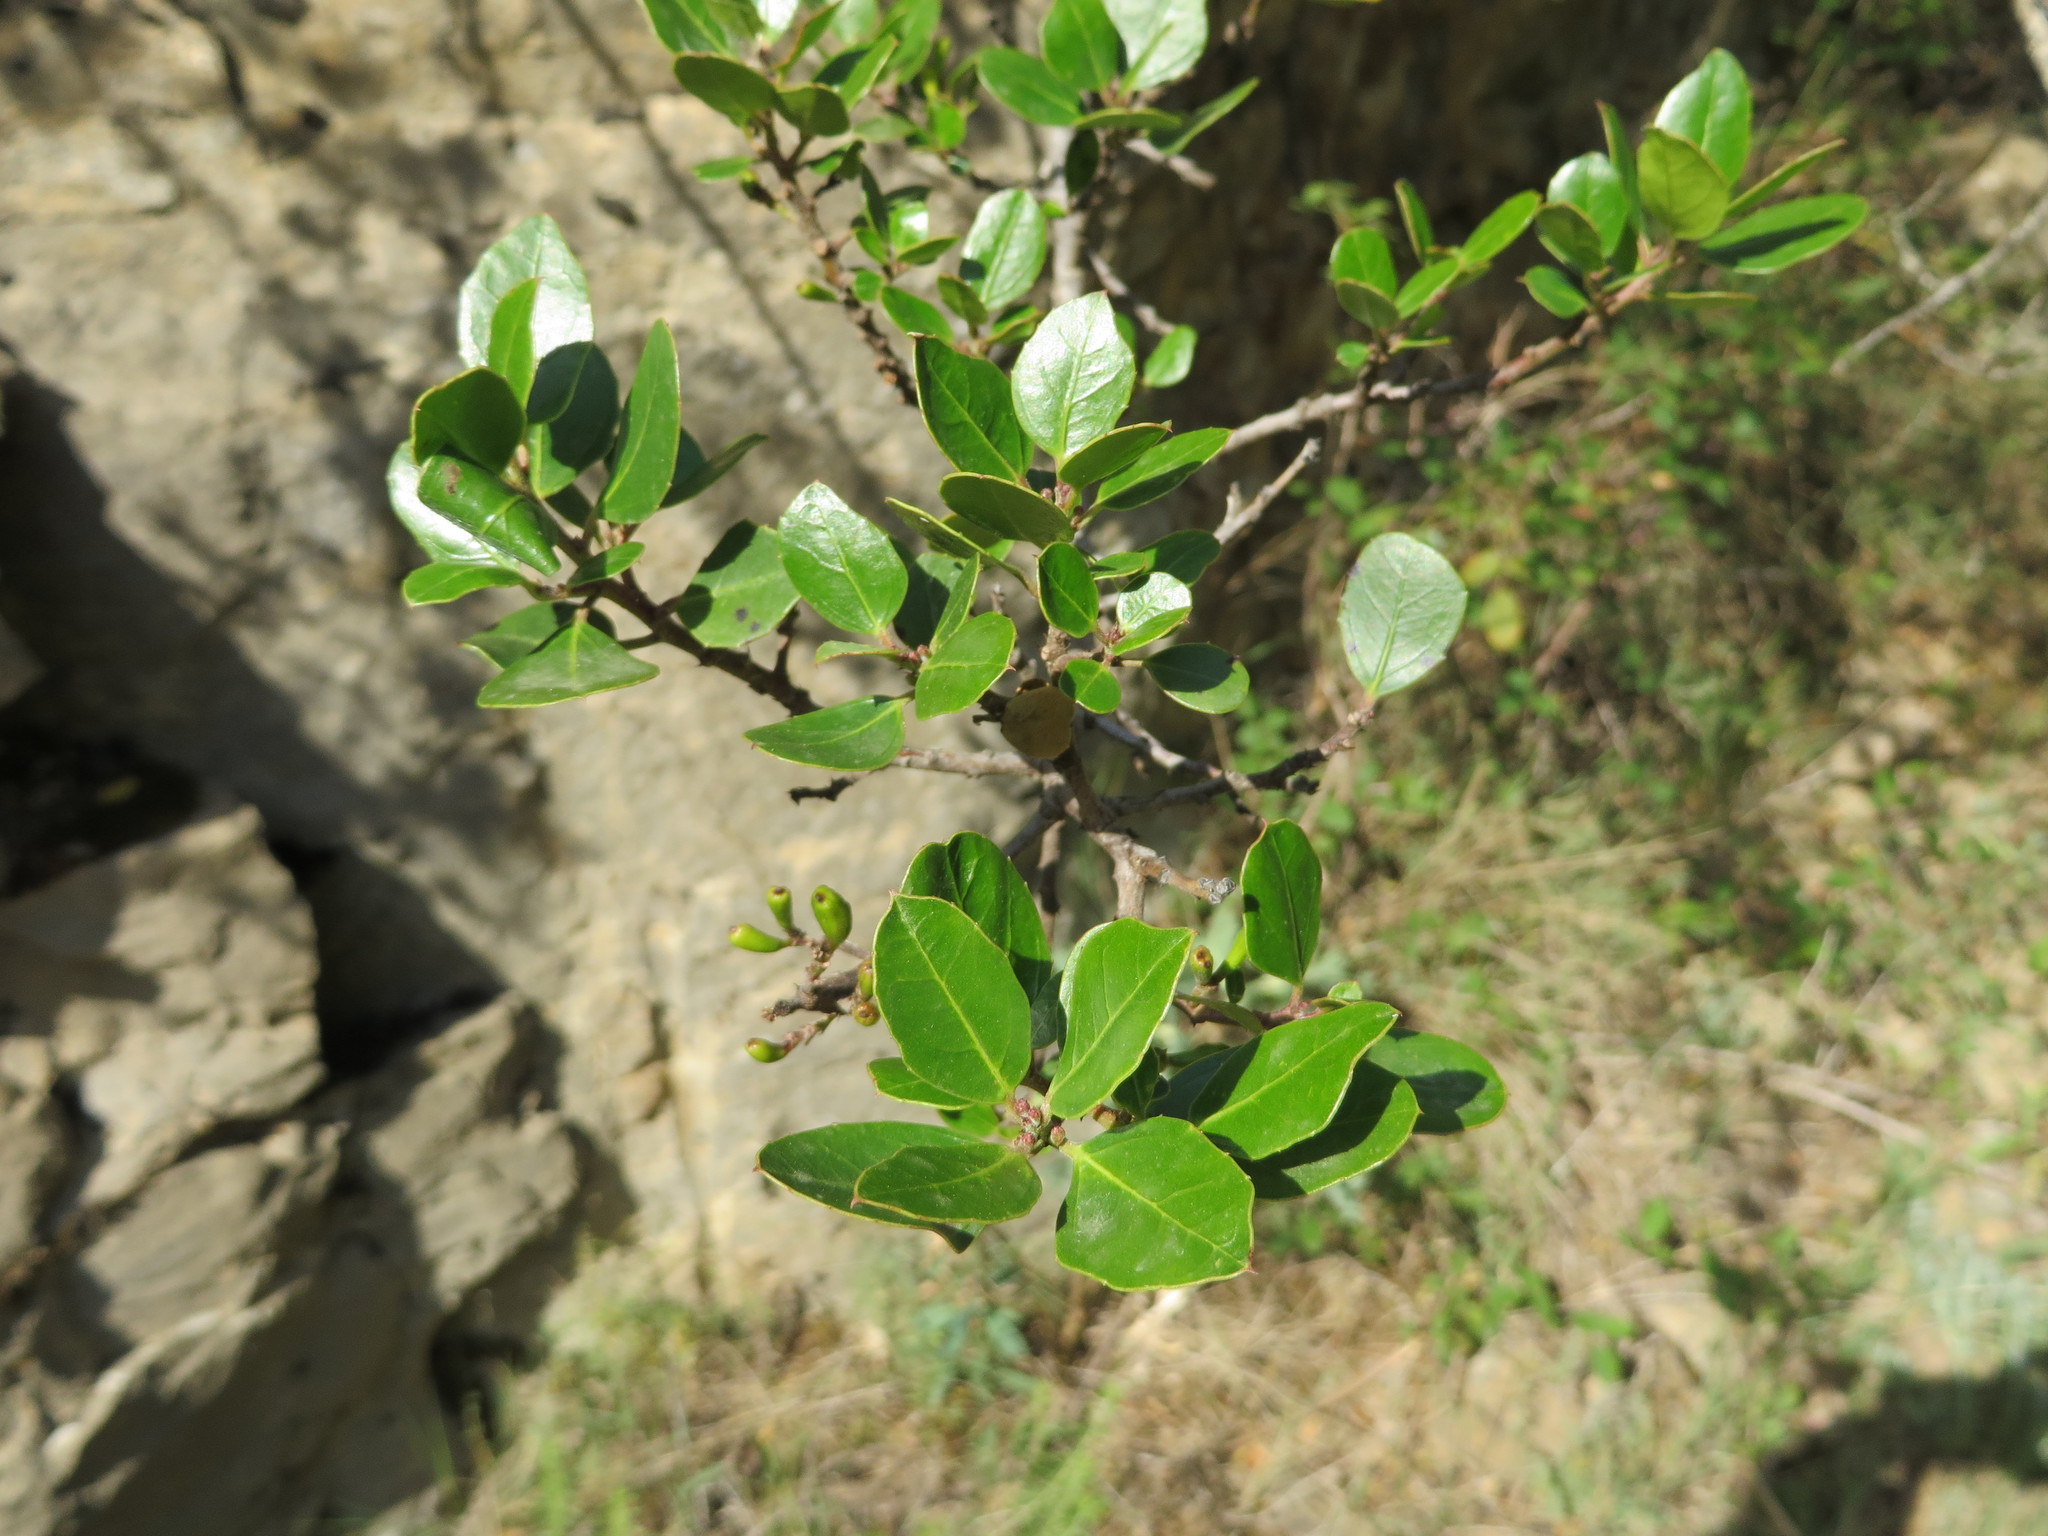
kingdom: Plantae
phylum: Tracheophyta
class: Magnoliopsida
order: Rosales
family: Rhamnaceae
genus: Rhamnus
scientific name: Rhamnus alaternus
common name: Mediterranean buckthorn
